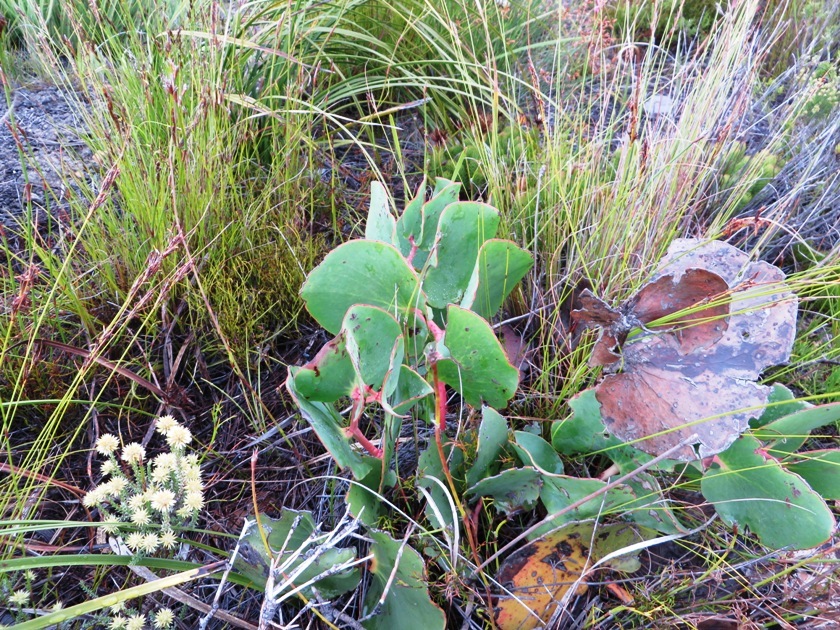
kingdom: Plantae
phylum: Tracheophyta
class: Magnoliopsida
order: Proteales
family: Proteaceae
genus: Protea
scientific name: Protea cordata
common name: Heart-leaf sugarbush
